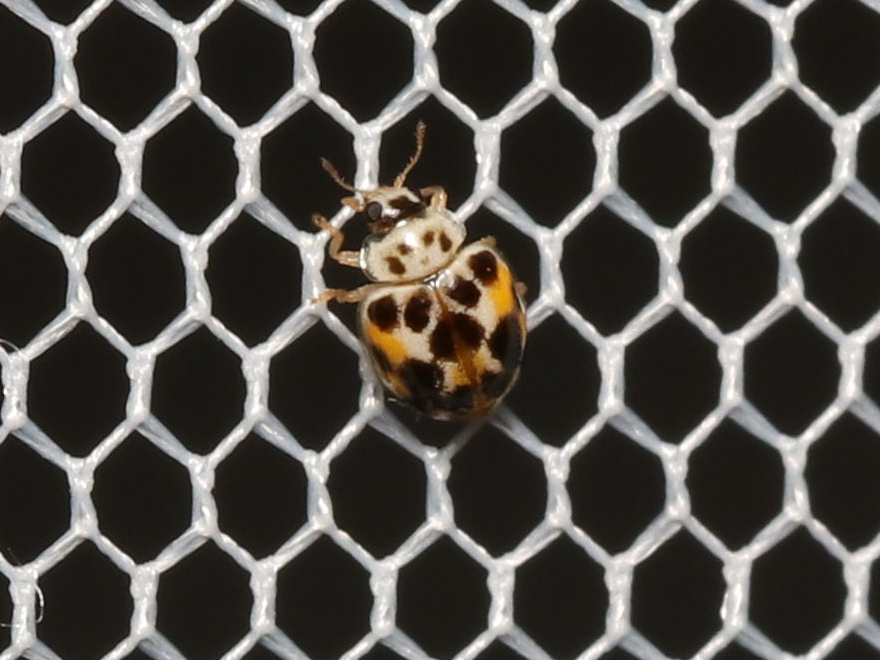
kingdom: Animalia
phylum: Arthropoda
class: Insecta
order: Coleoptera
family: Coccinellidae
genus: Psyllobora
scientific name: Psyllobora vigintimaculata
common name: Ladybird beetle
